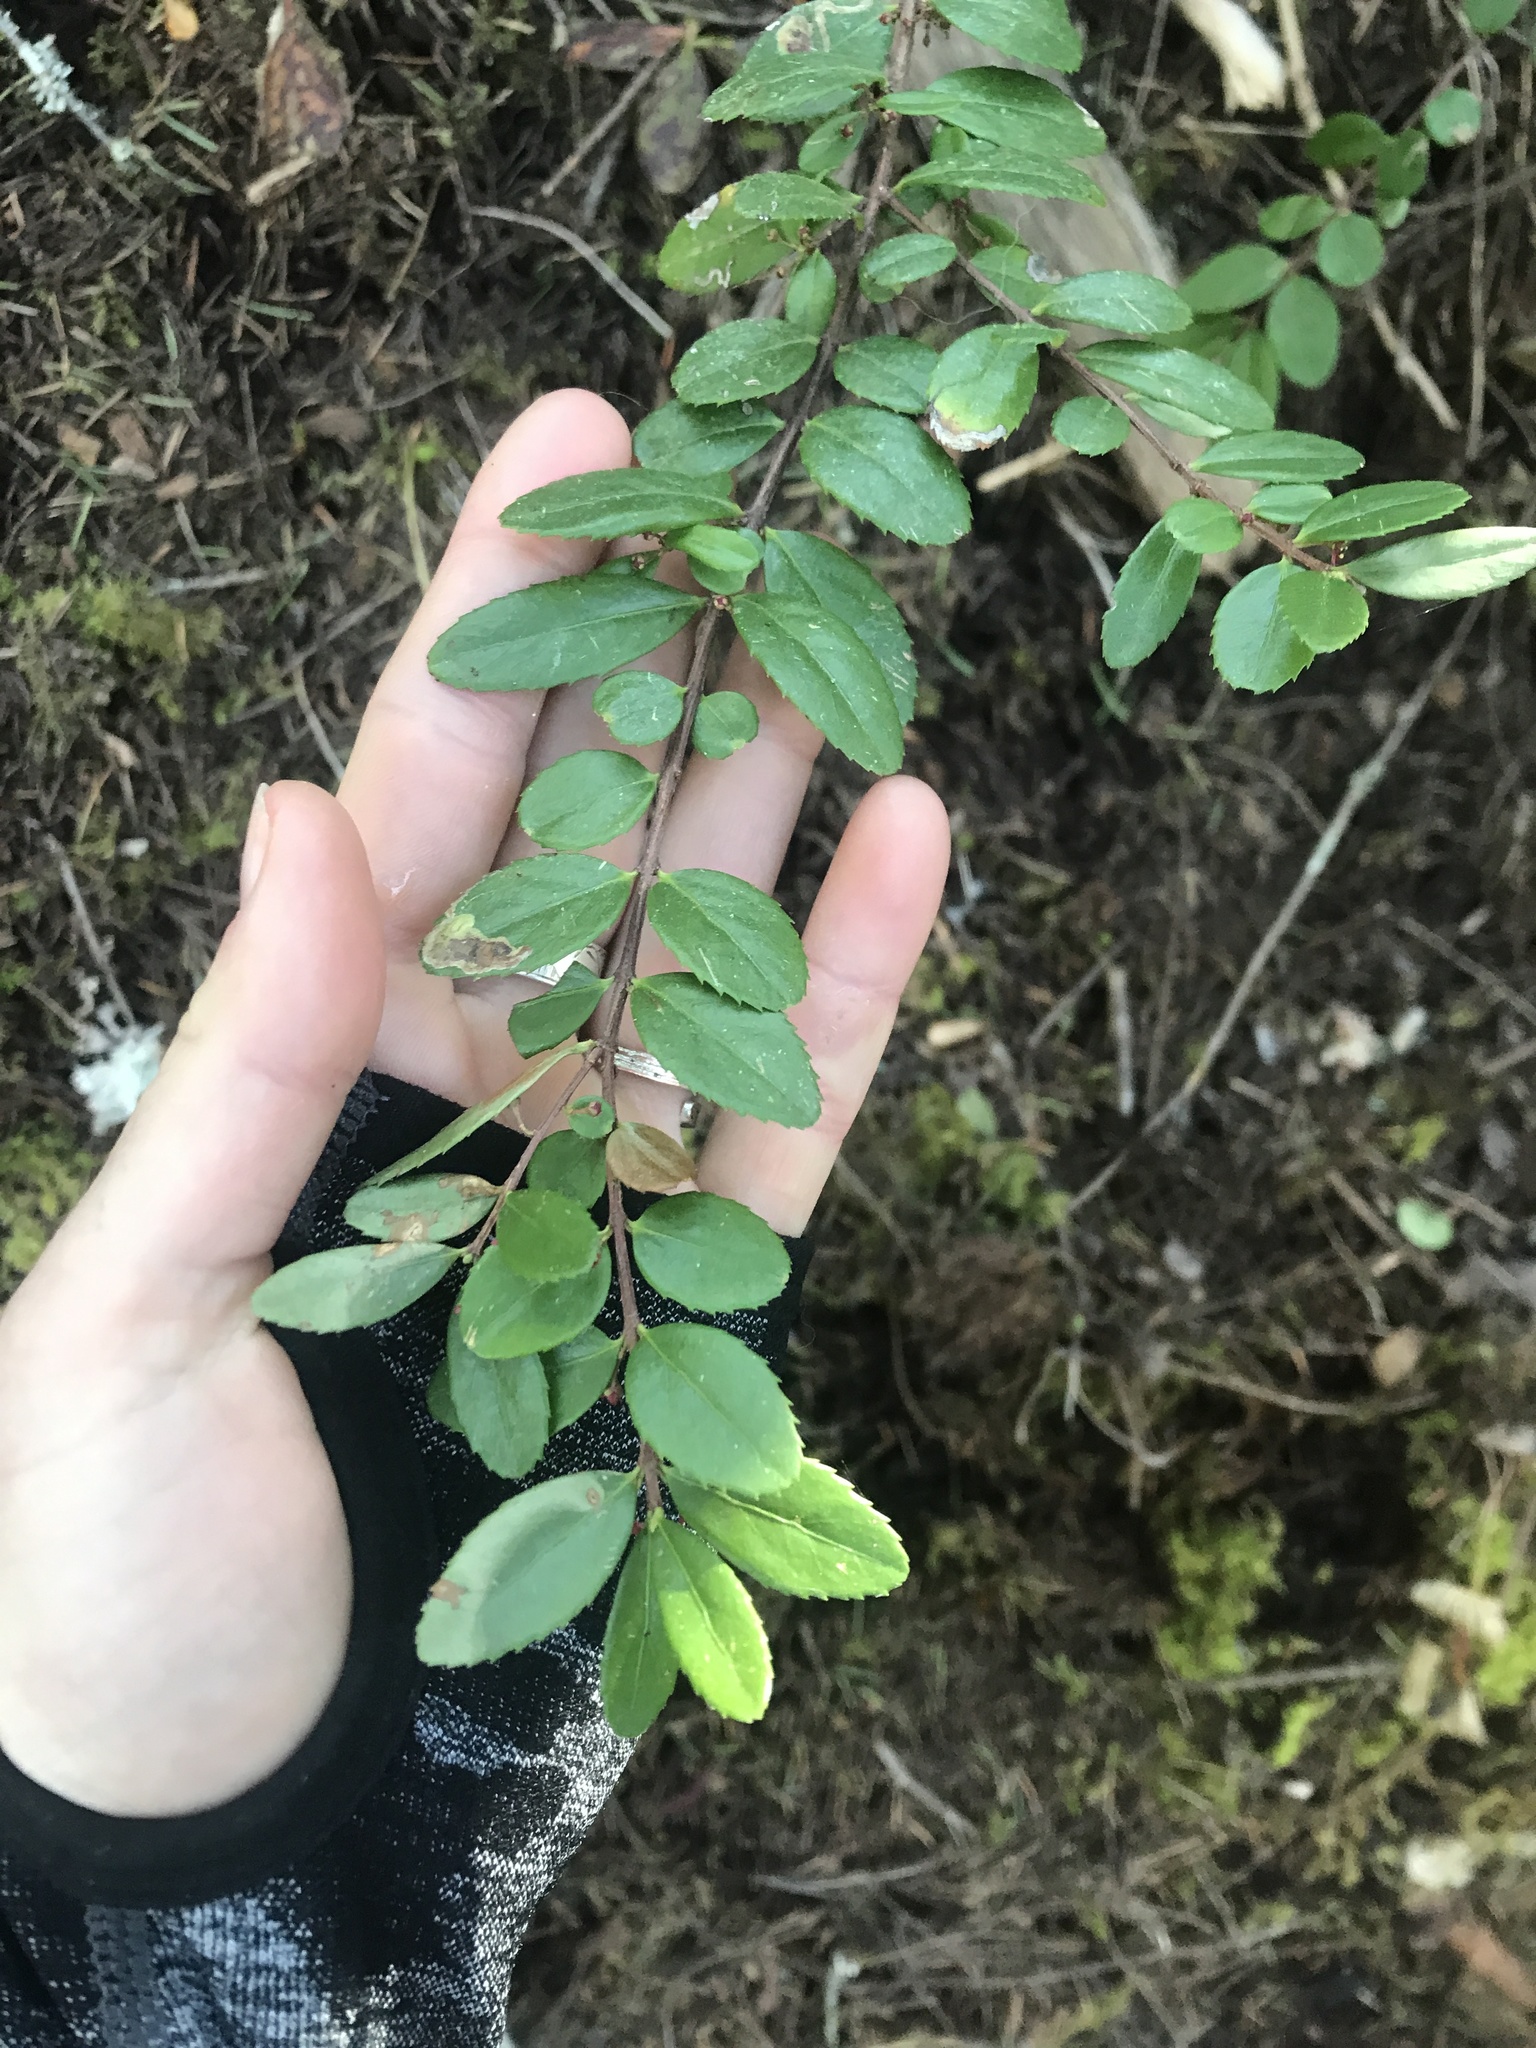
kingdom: Plantae
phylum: Tracheophyta
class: Magnoliopsida
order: Celastrales
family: Celastraceae
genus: Paxistima
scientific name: Paxistima myrsinites
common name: Mountain-lover
